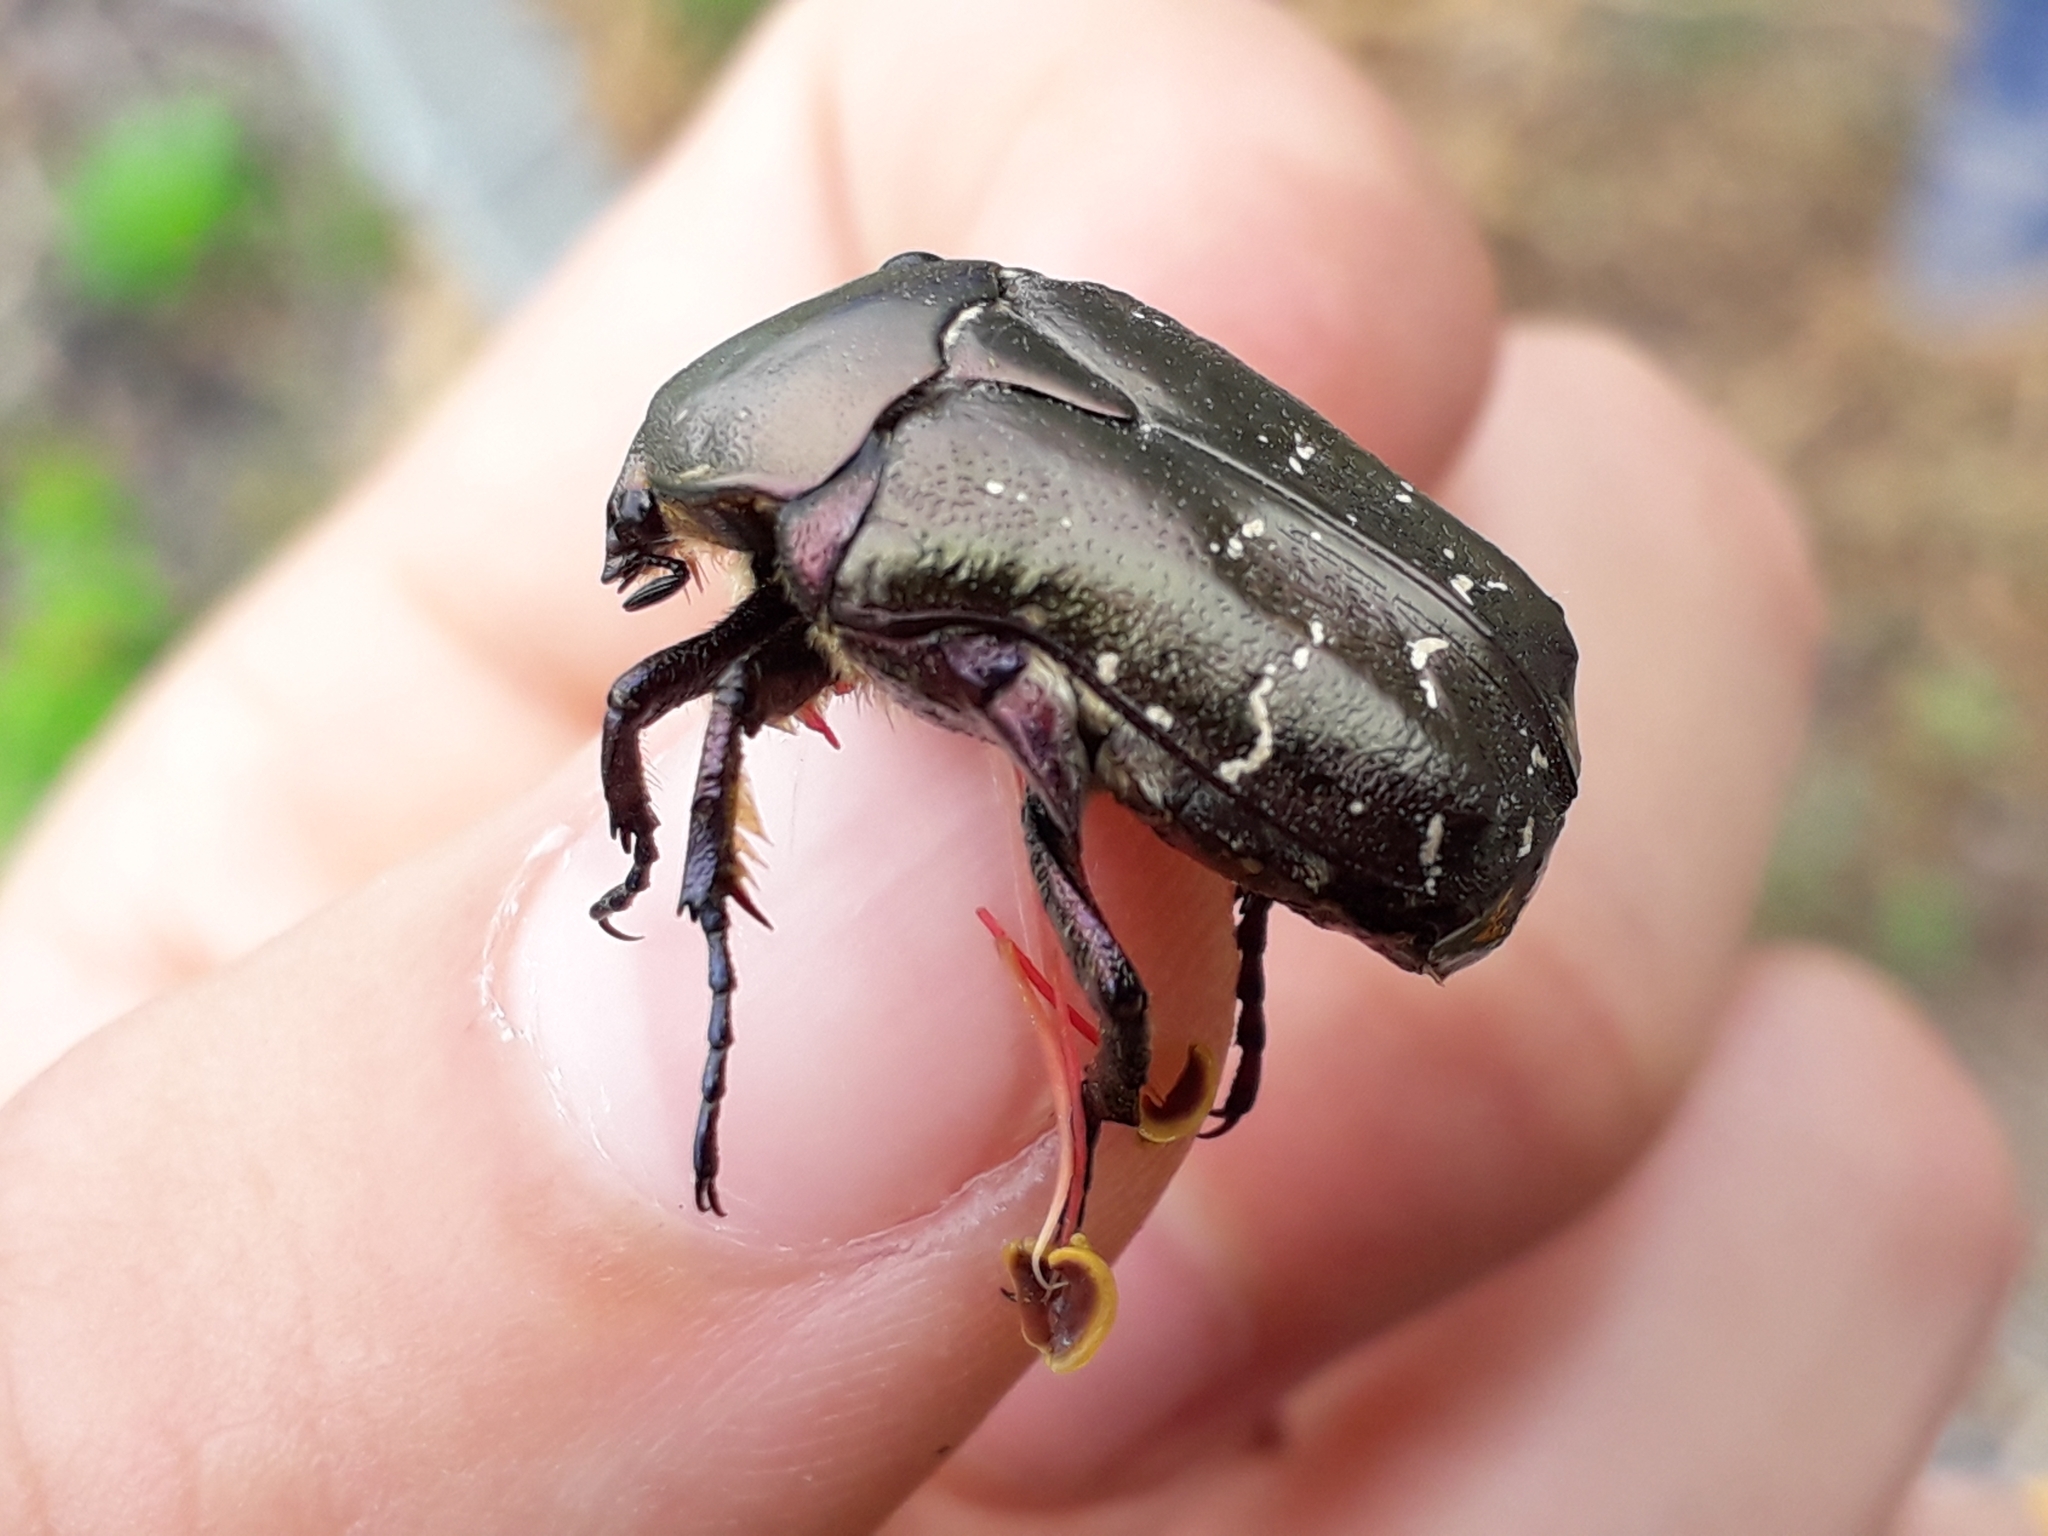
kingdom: Animalia
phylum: Arthropoda
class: Insecta
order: Coleoptera
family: Scarabaeidae
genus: Protaetia
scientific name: Protaetia cuprea
